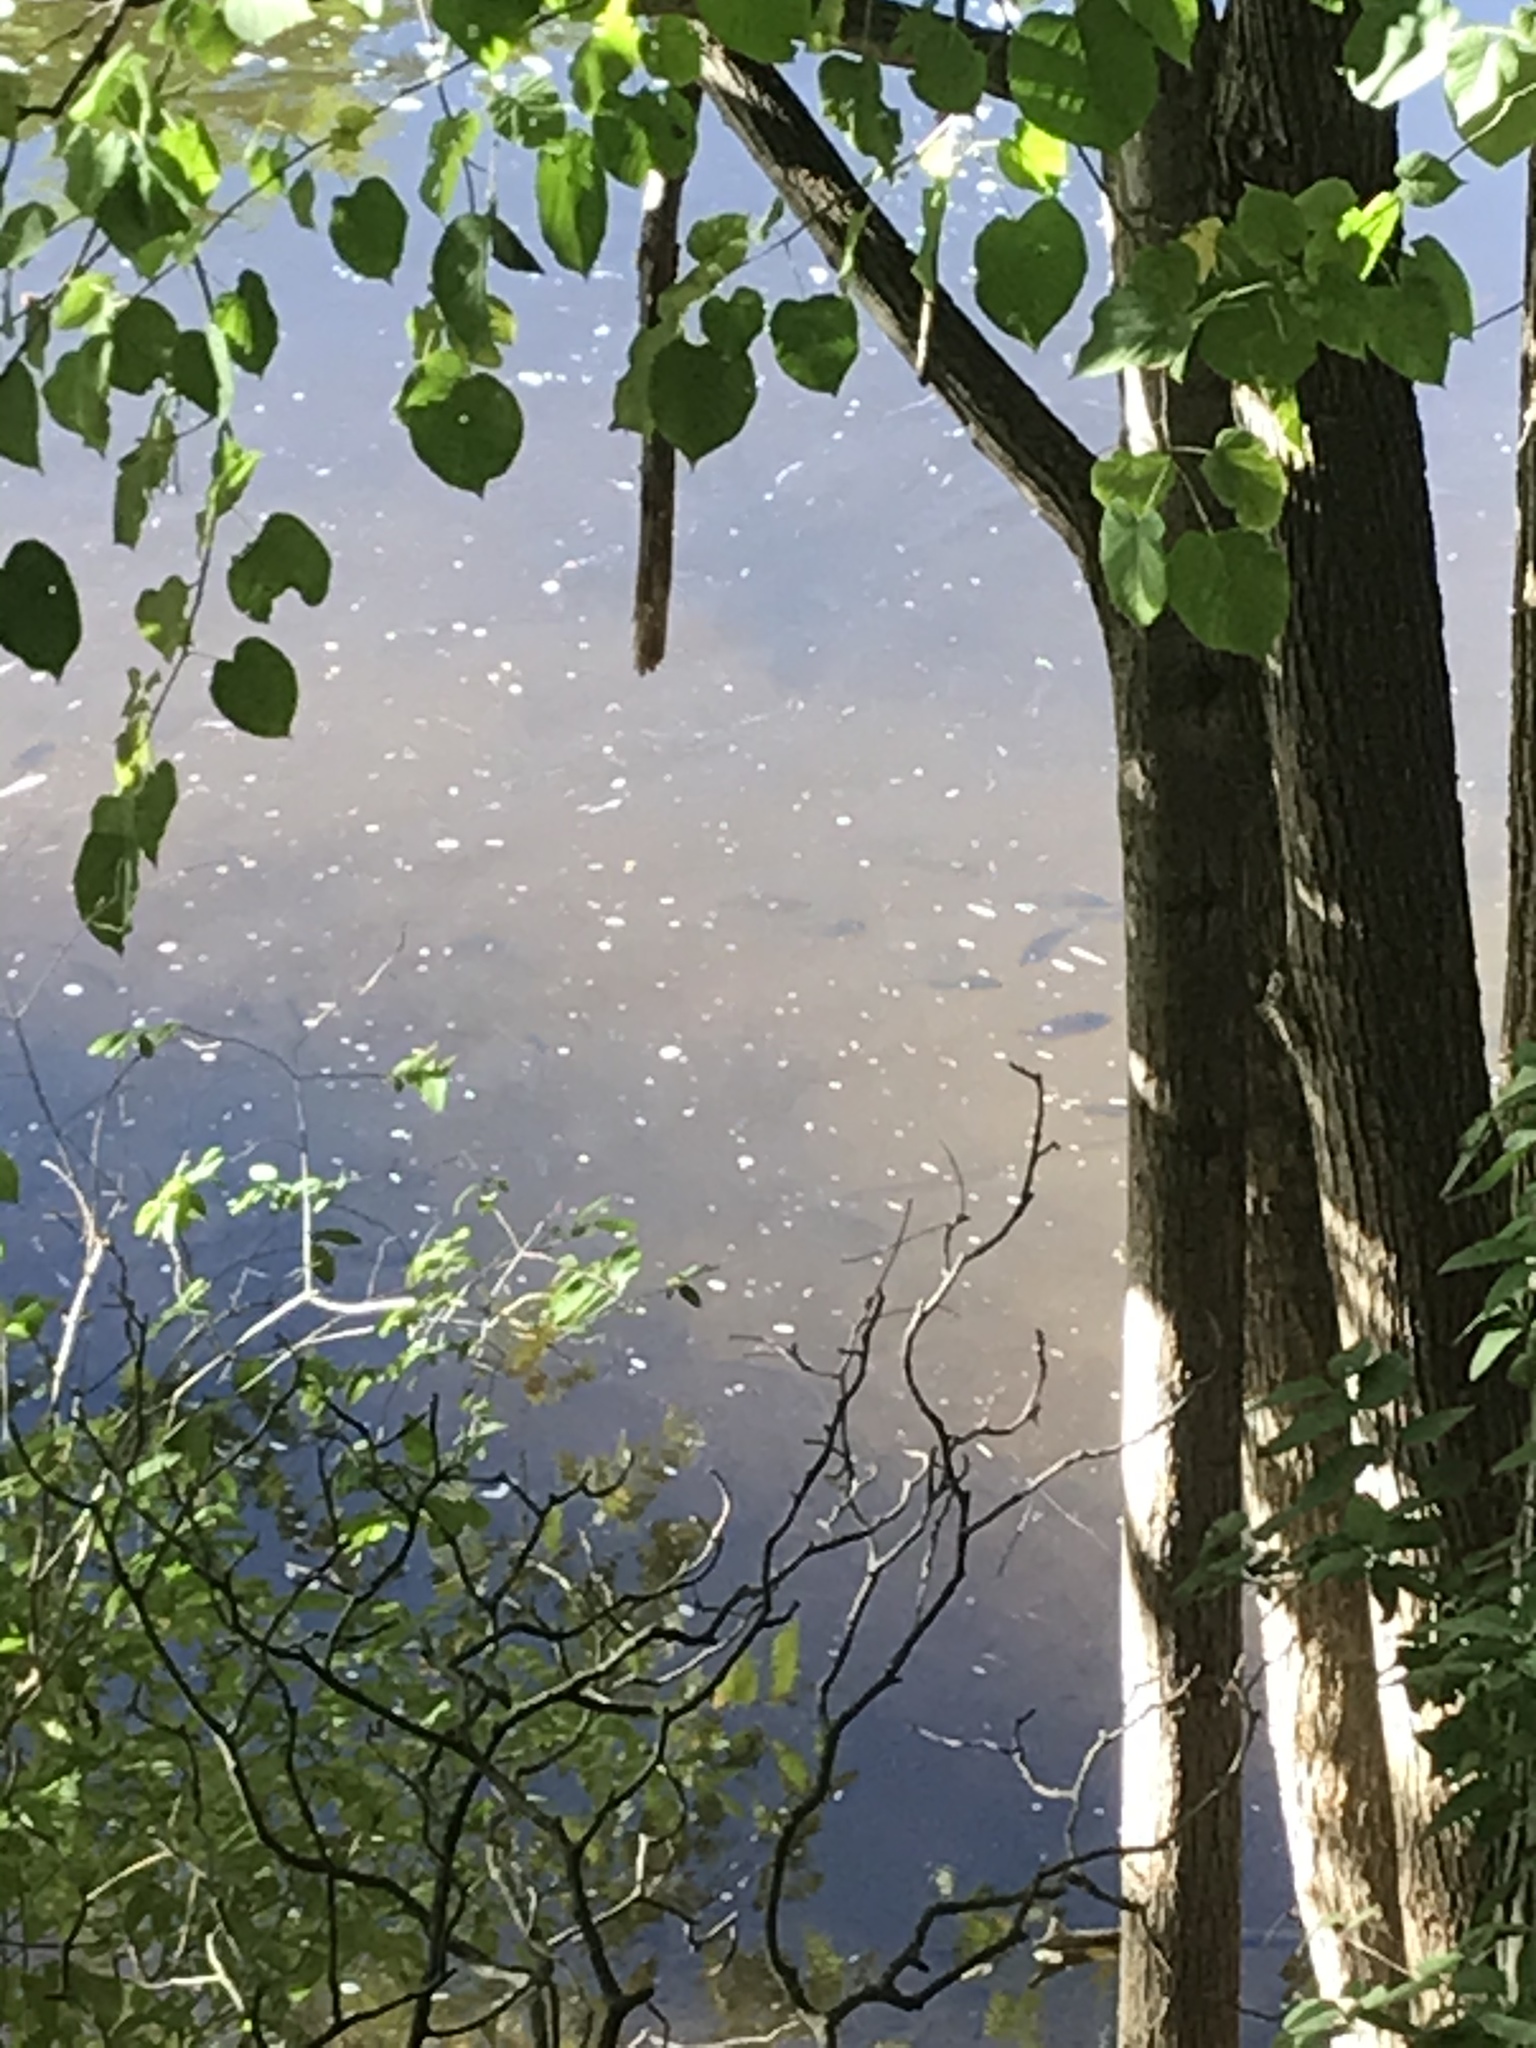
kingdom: Animalia
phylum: Chordata
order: Perciformes
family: Centrarchidae
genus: Lepomis
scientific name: Lepomis
